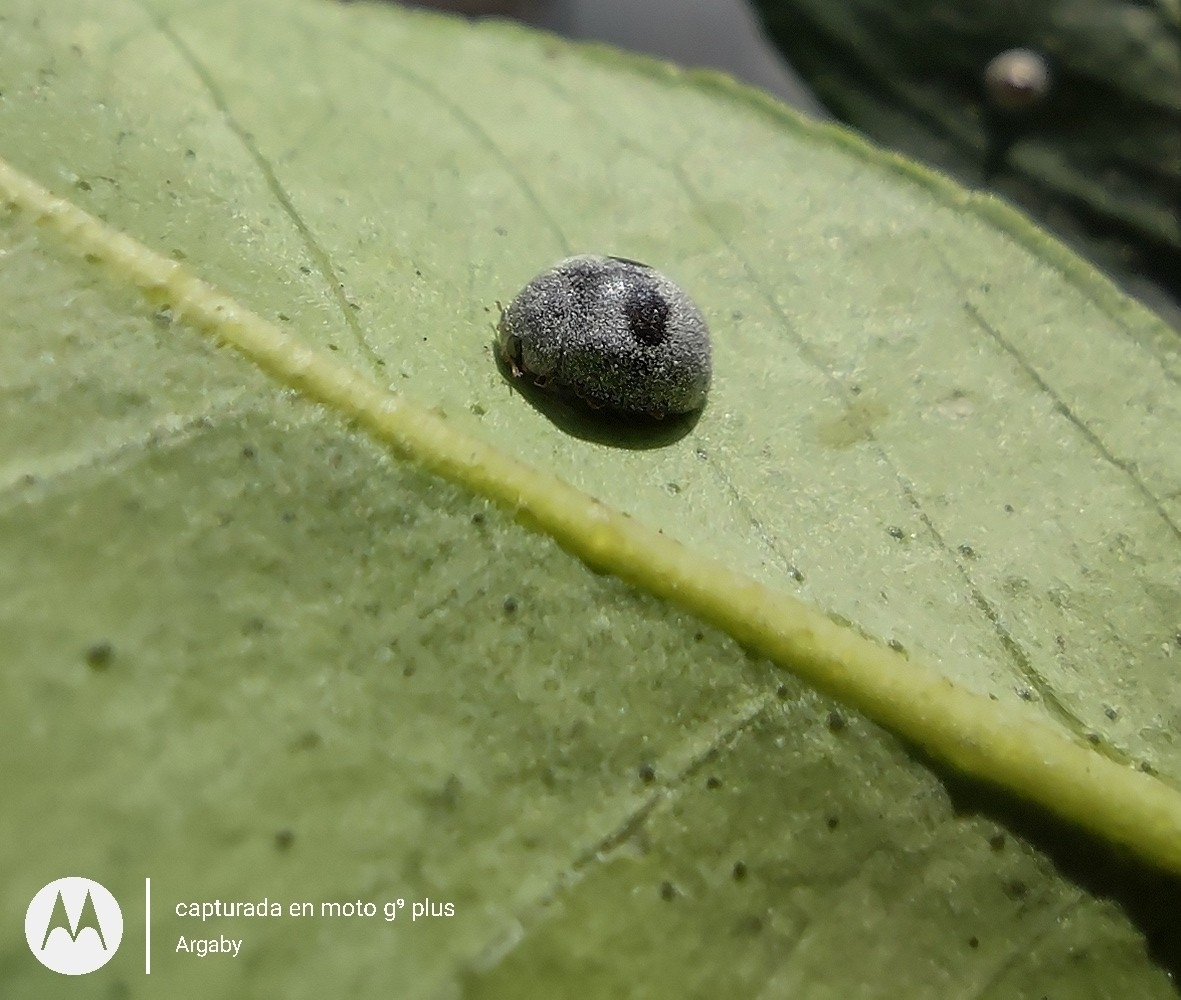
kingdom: Animalia
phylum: Arthropoda
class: Insecta
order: Coleoptera
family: Coccinellidae
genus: Azya
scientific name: Azya luteipes
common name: Ladybird beetle
